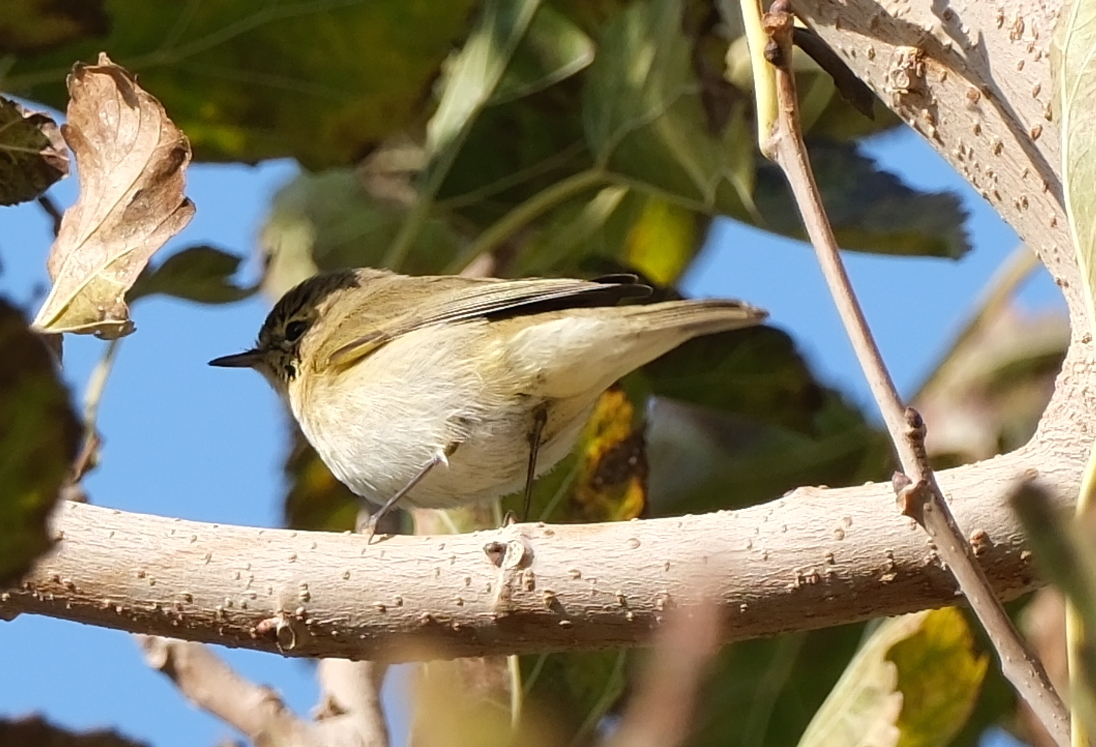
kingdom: Animalia
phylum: Chordata
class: Aves
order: Passeriformes
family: Phylloscopidae
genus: Phylloscopus
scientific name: Phylloscopus collybita
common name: Common chiffchaff
